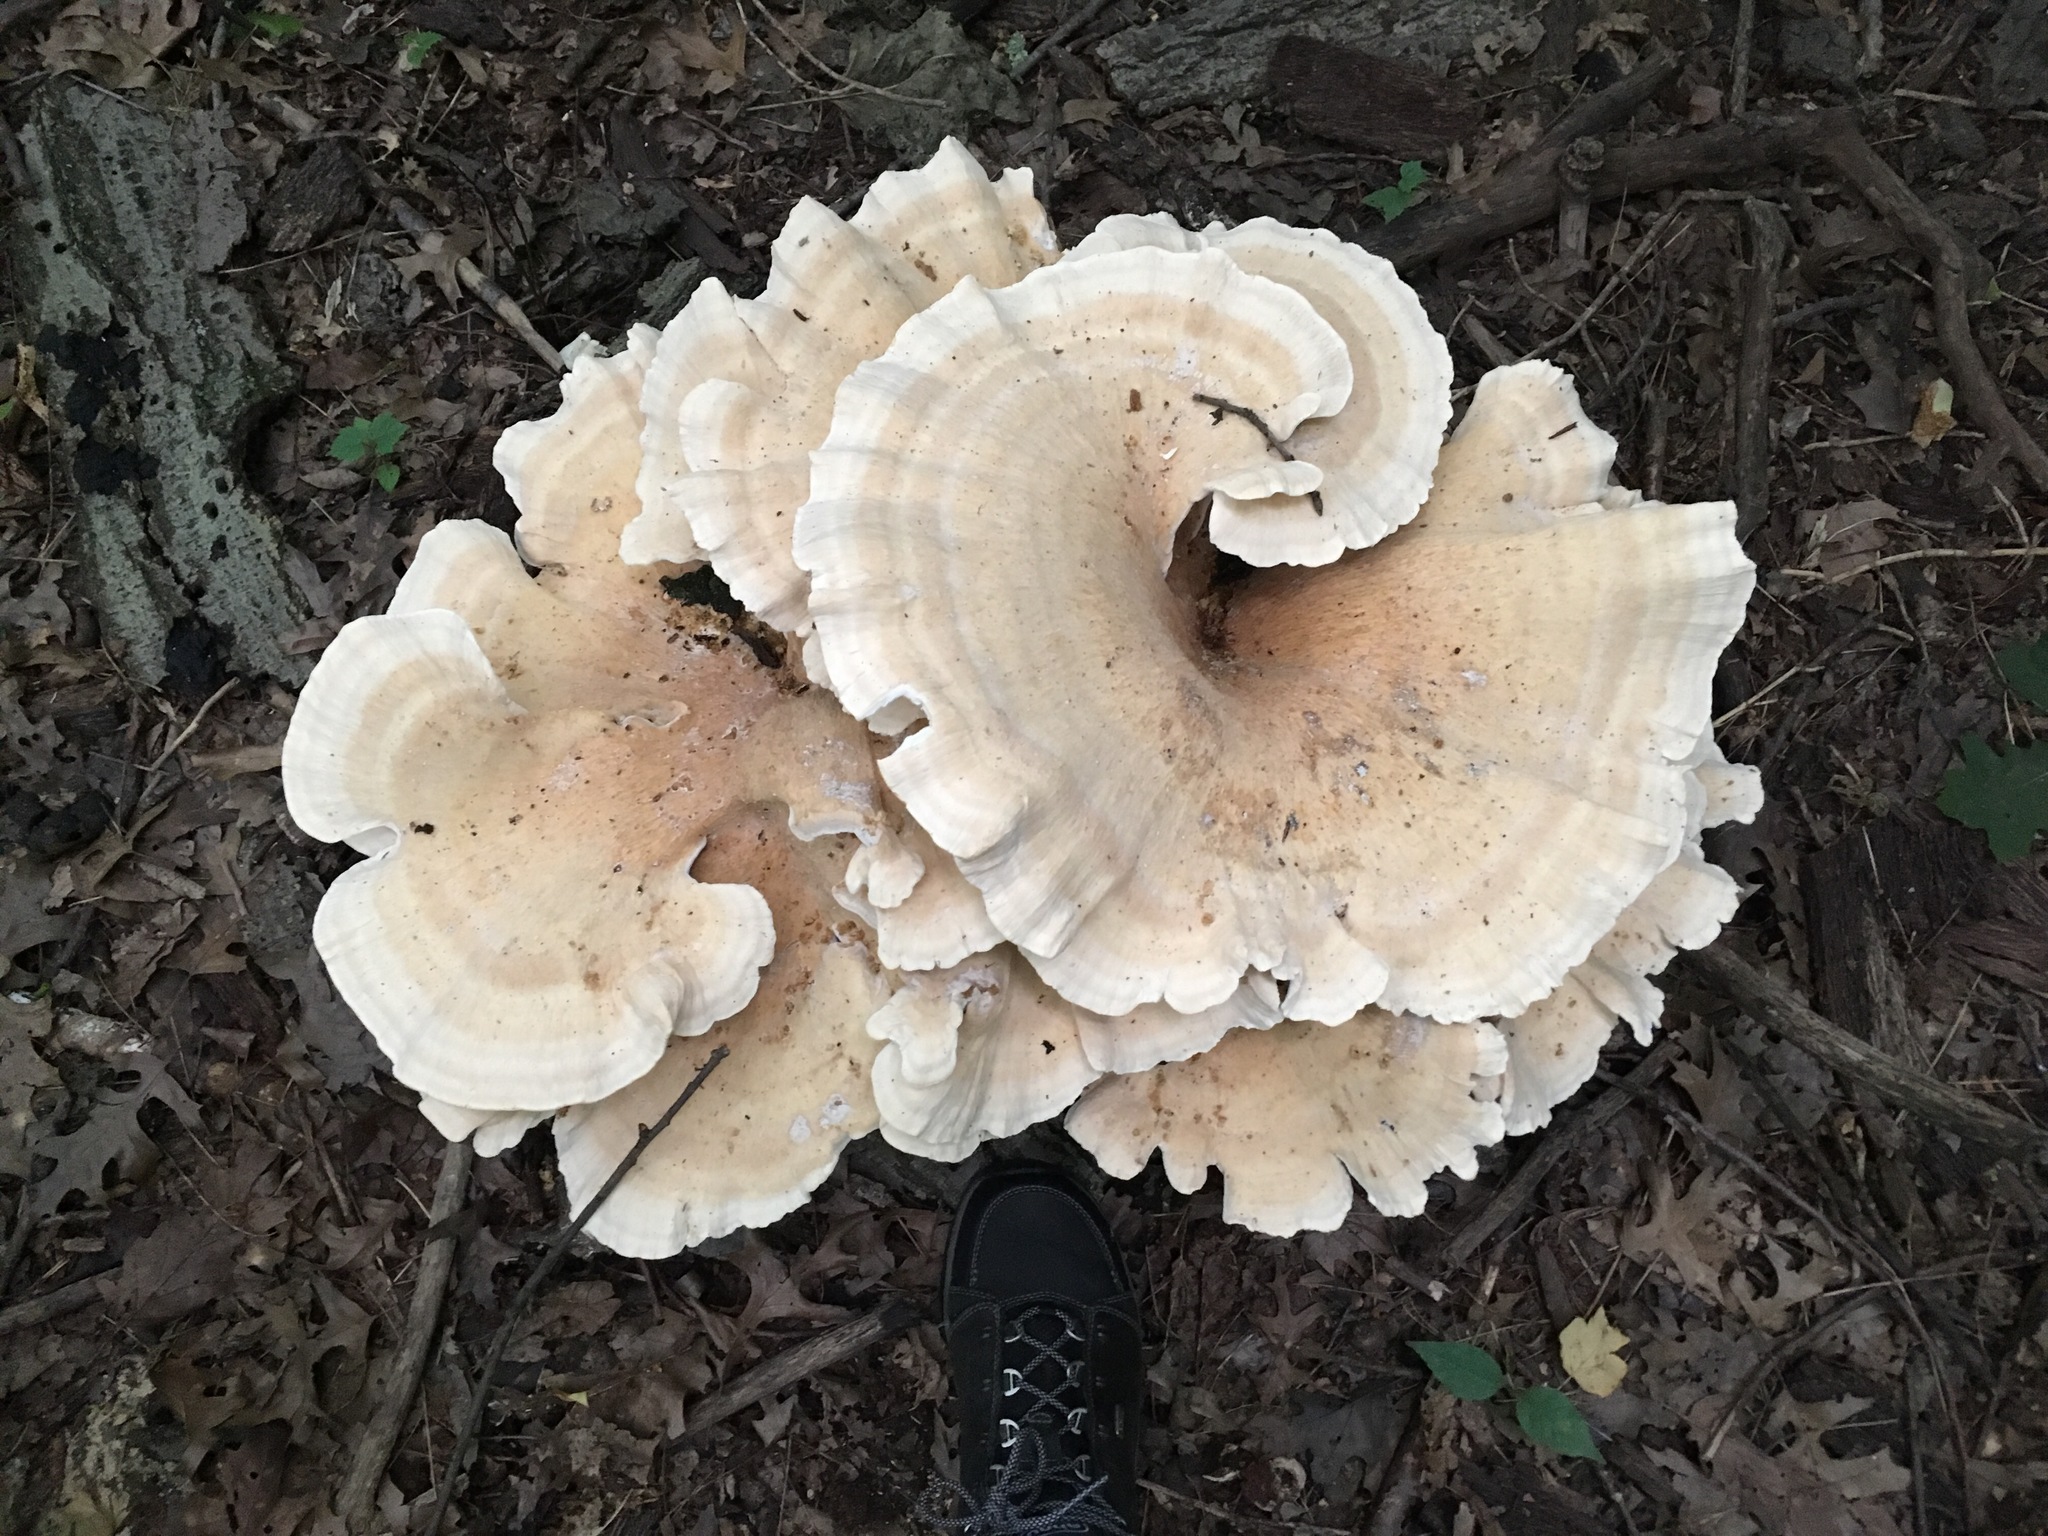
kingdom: Fungi
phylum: Basidiomycota
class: Agaricomycetes
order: Russulales
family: Bondarzewiaceae
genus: Bondarzewia
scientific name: Bondarzewia berkeleyi
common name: Berkeley's polypore
